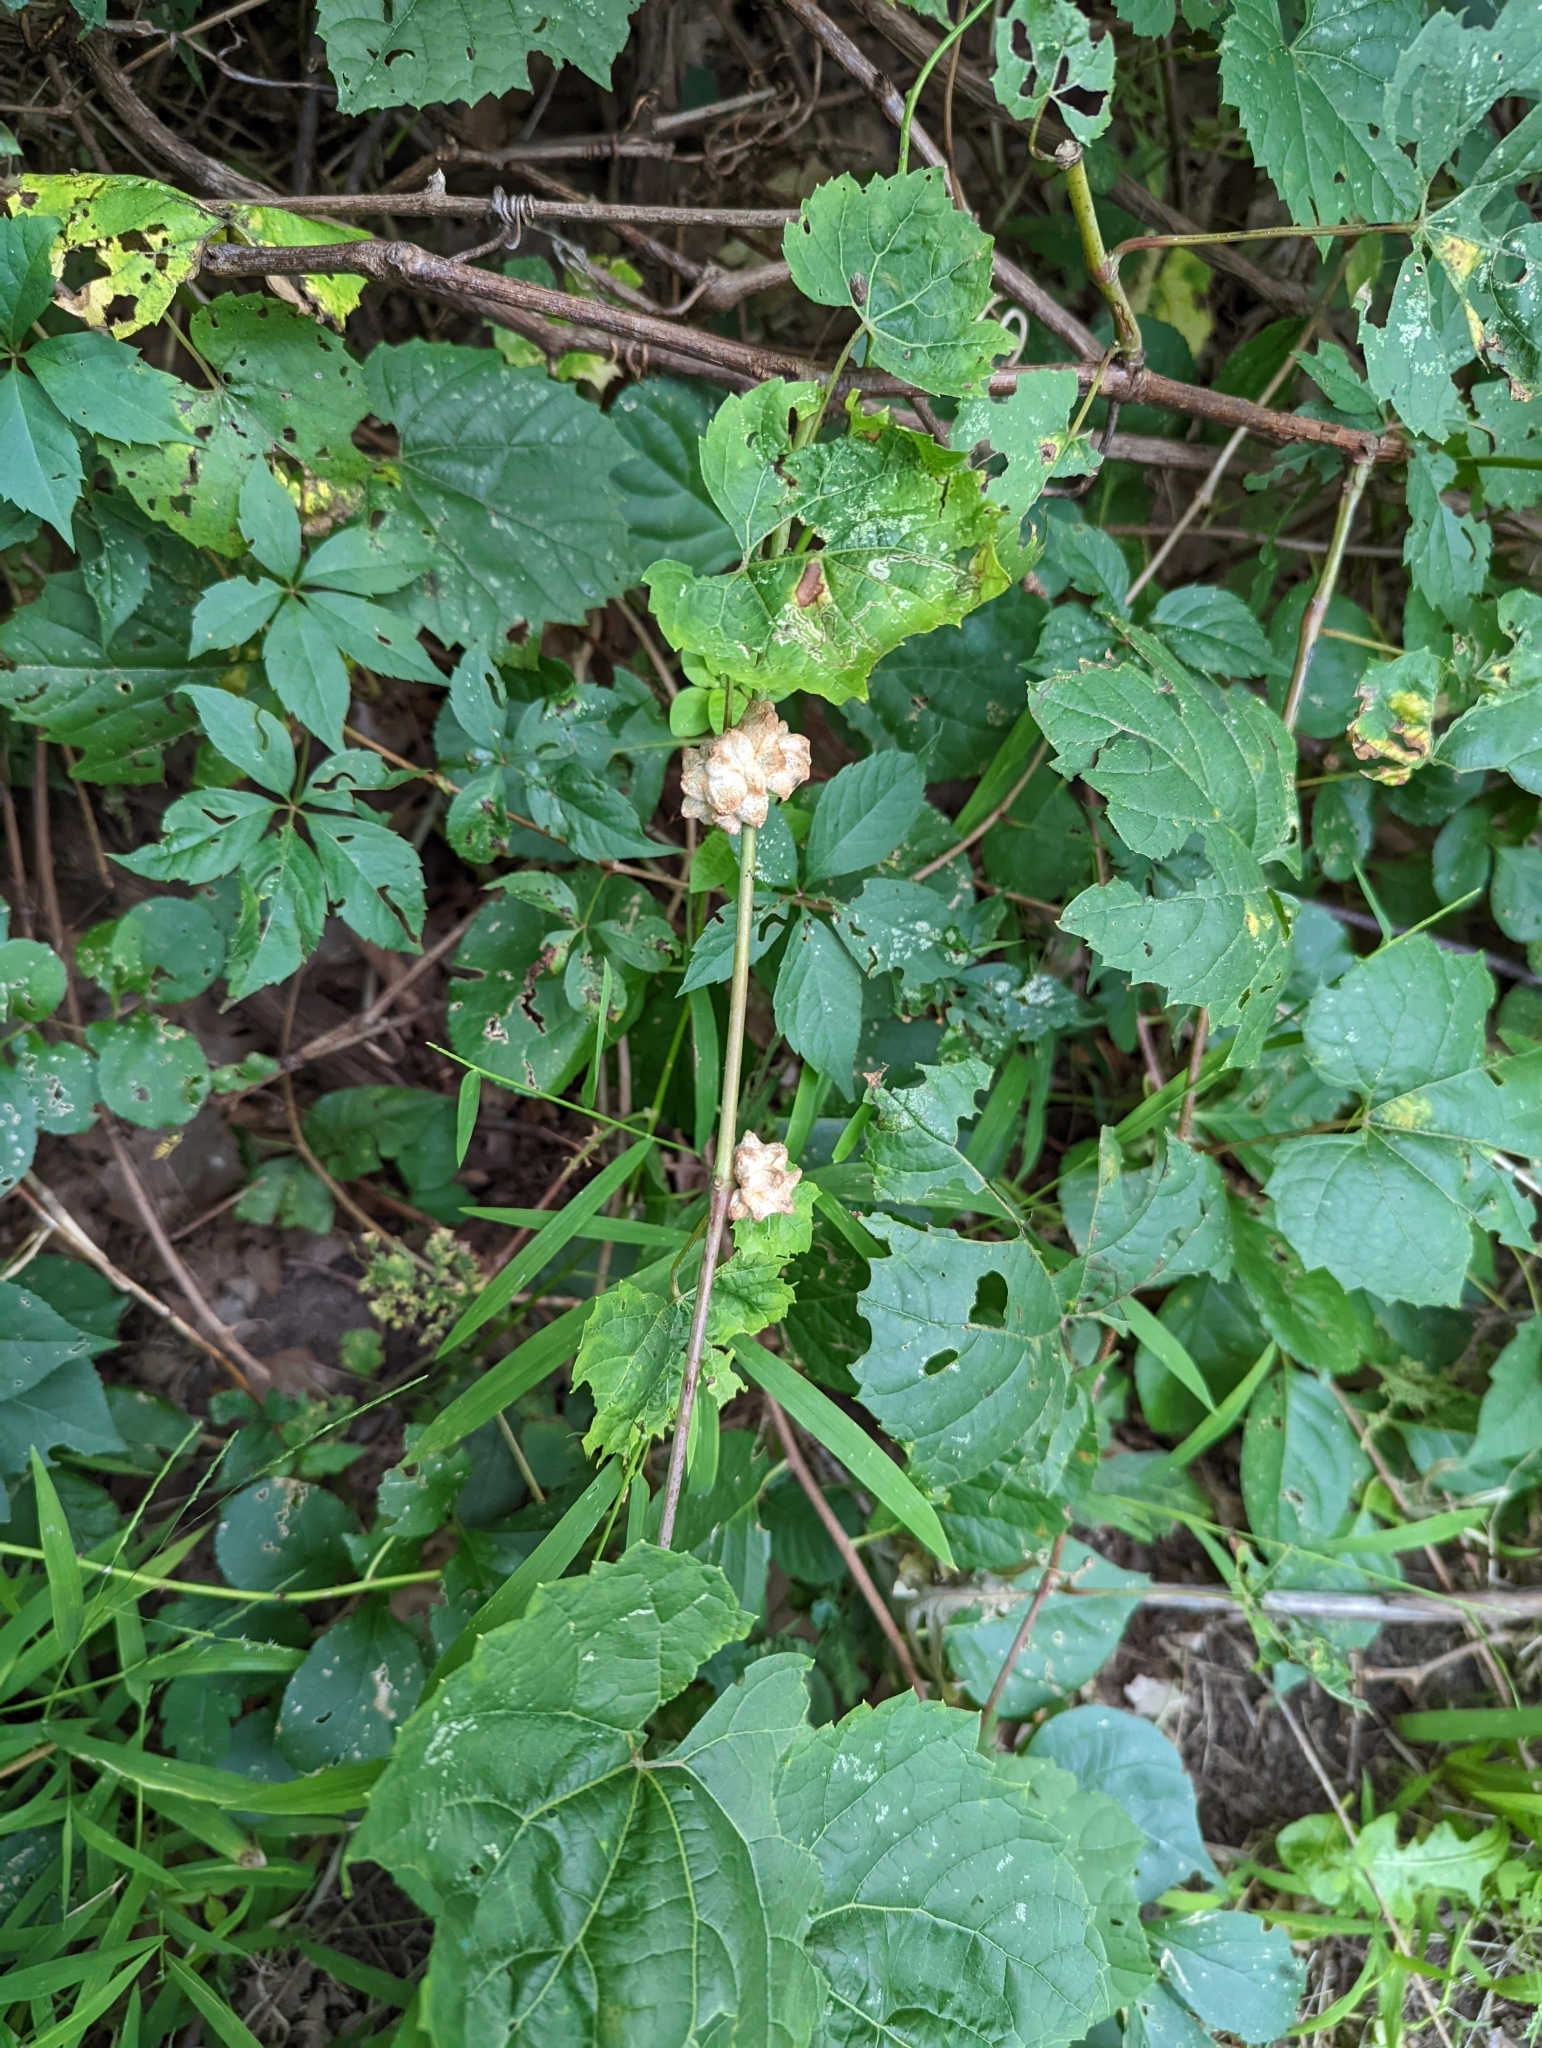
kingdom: Animalia
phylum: Arthropoda
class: Insecta
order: Diptera
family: Cecidomyiidae
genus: Ampelomyia
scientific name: Ampelomyia vitiscoryloides
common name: Grape filbert gall
